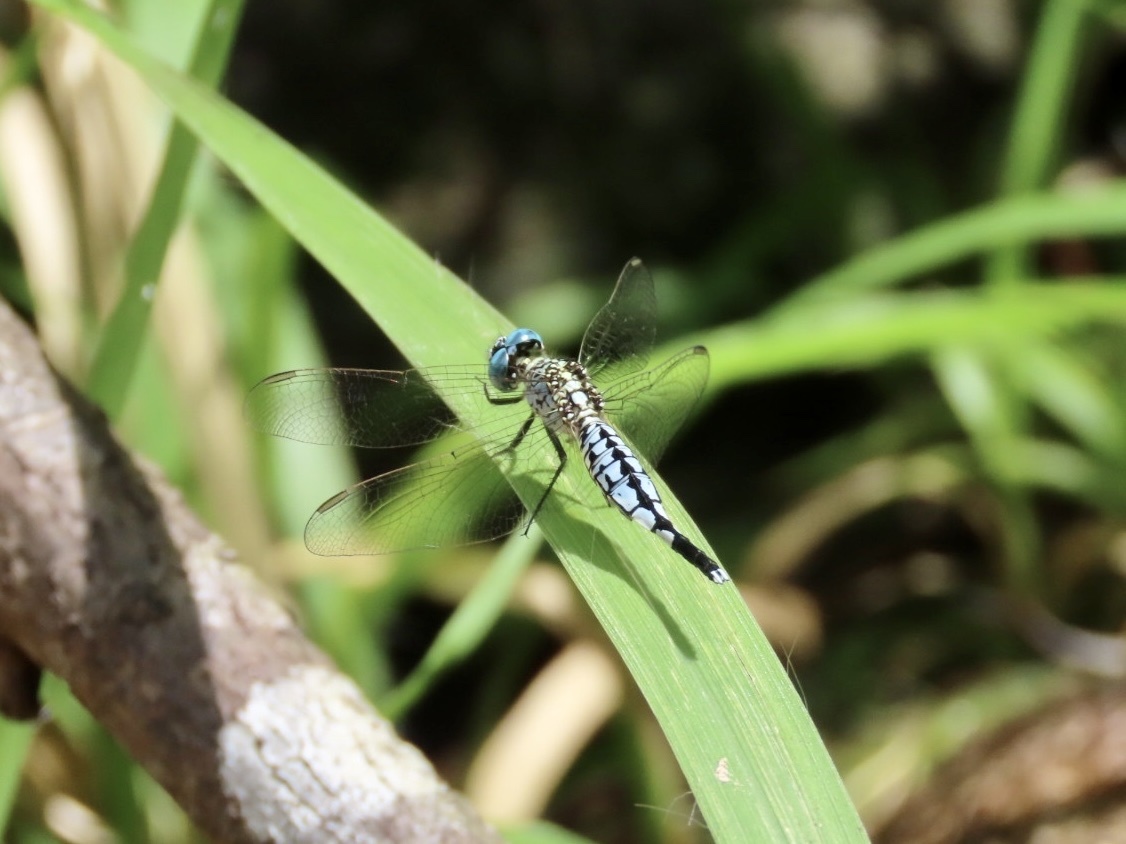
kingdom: Animalia
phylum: Arthropoda
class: Insecta
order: Odonata
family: Libellulidae
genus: Acisoma
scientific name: Acisoma panorpoides
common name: Asian pintail
